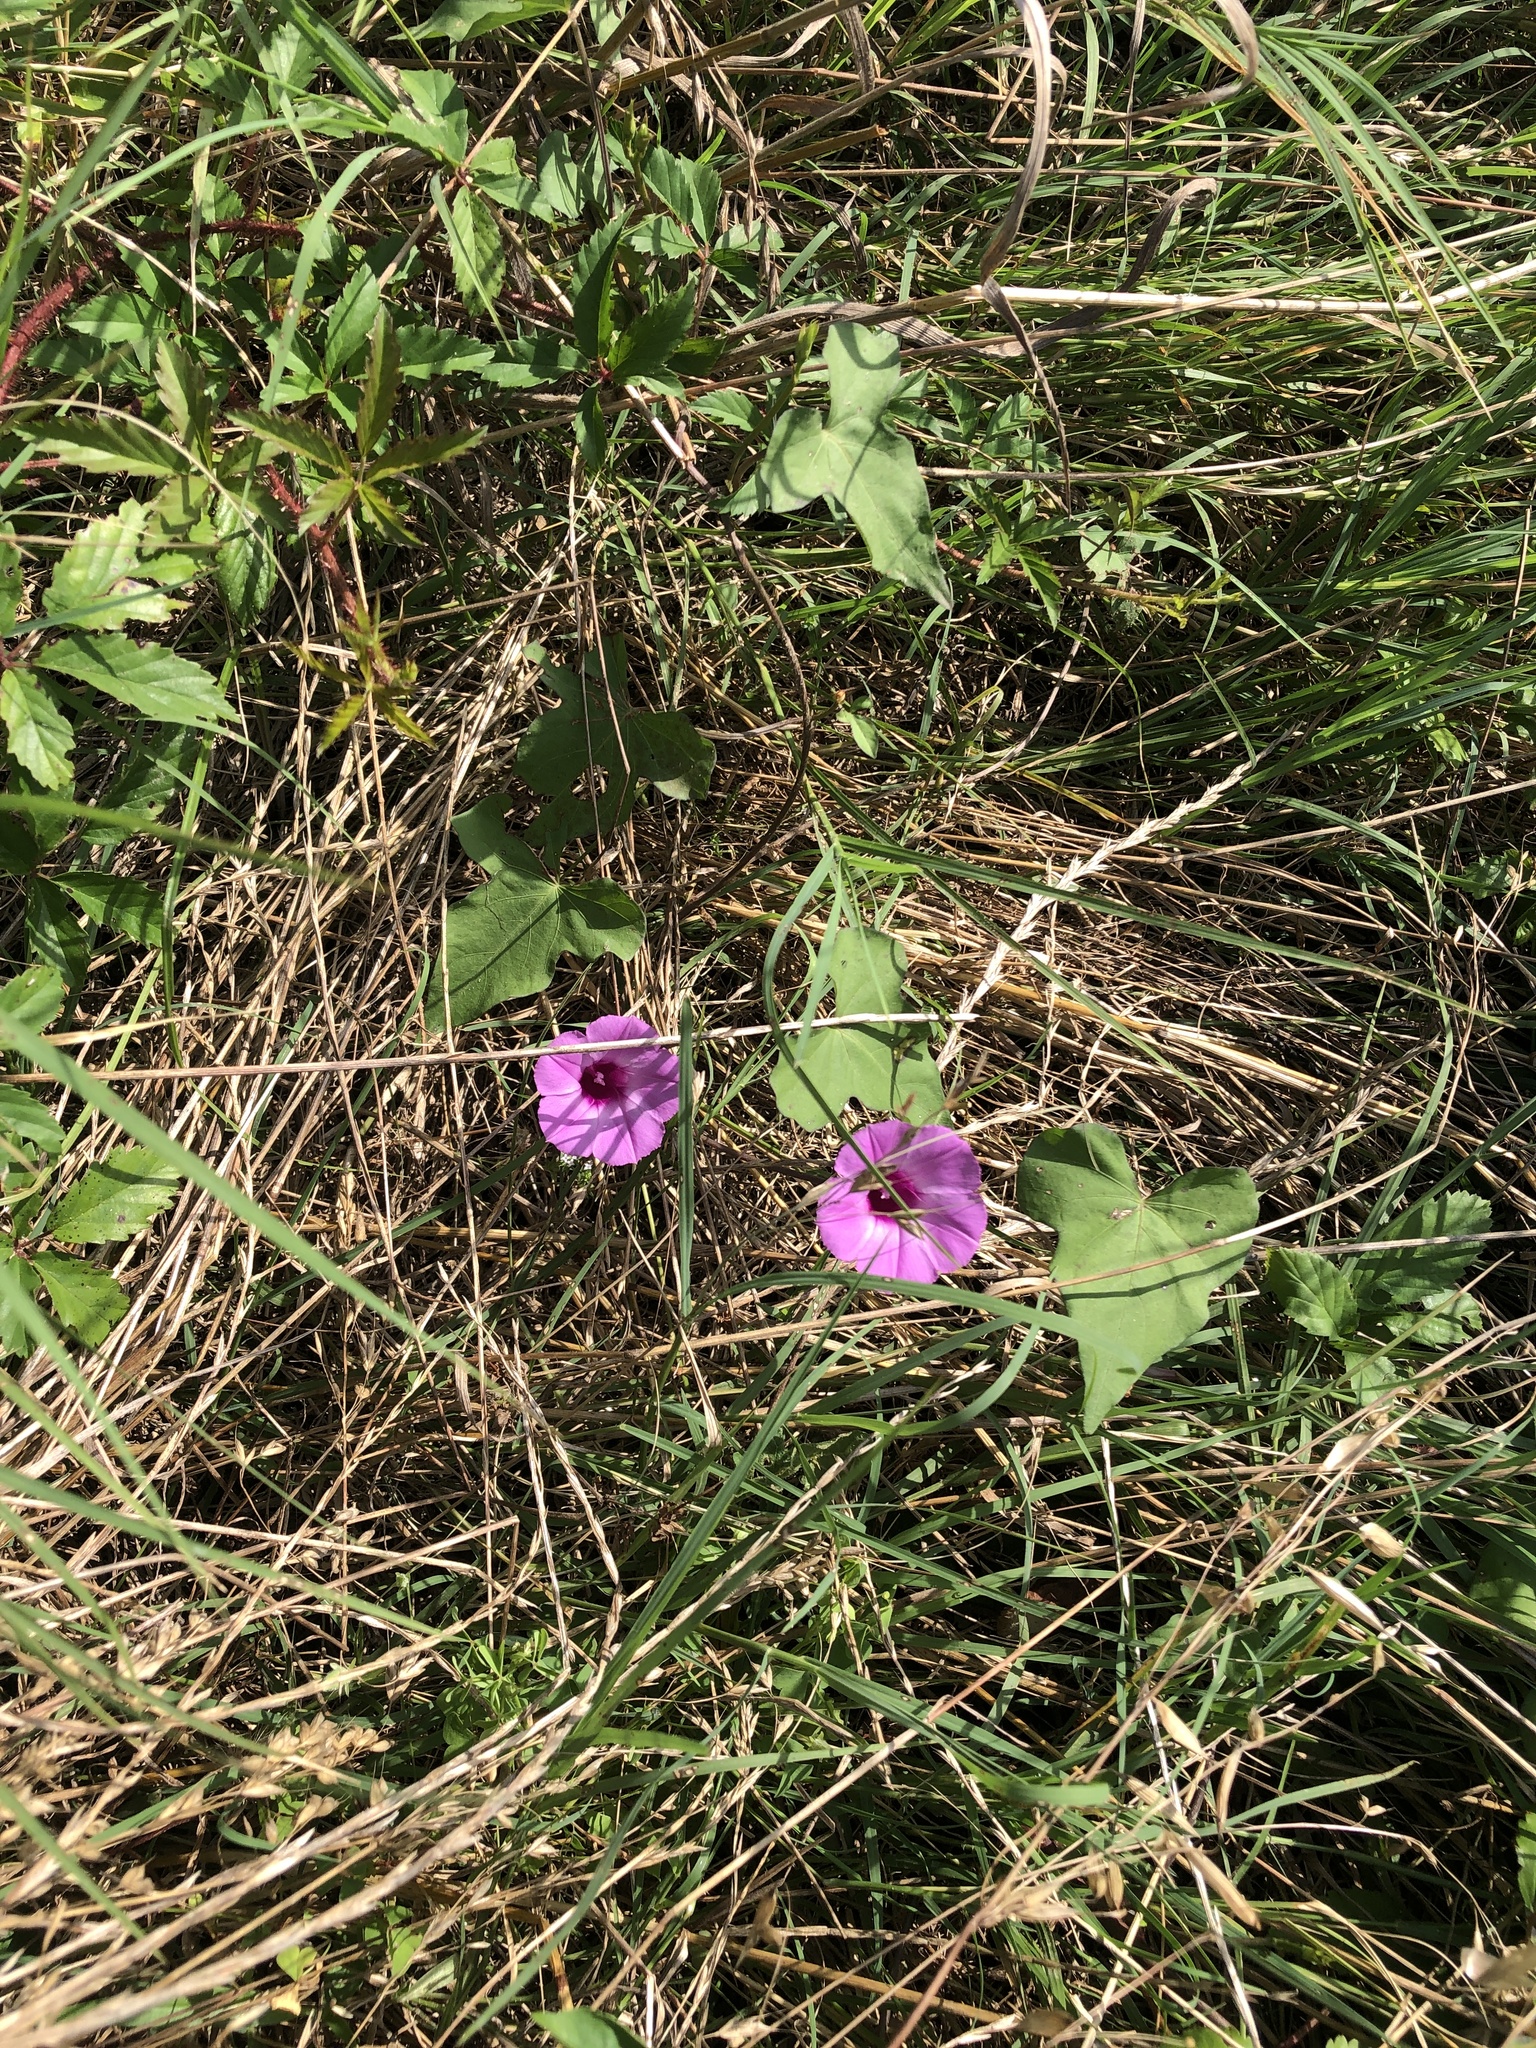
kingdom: Plantae
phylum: Tracheophyta
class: Magnoliopsida
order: Solanales
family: Convolvulaceae
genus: Ipomoea
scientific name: Ipomoea cordatotriloba
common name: Cotton morning glory
